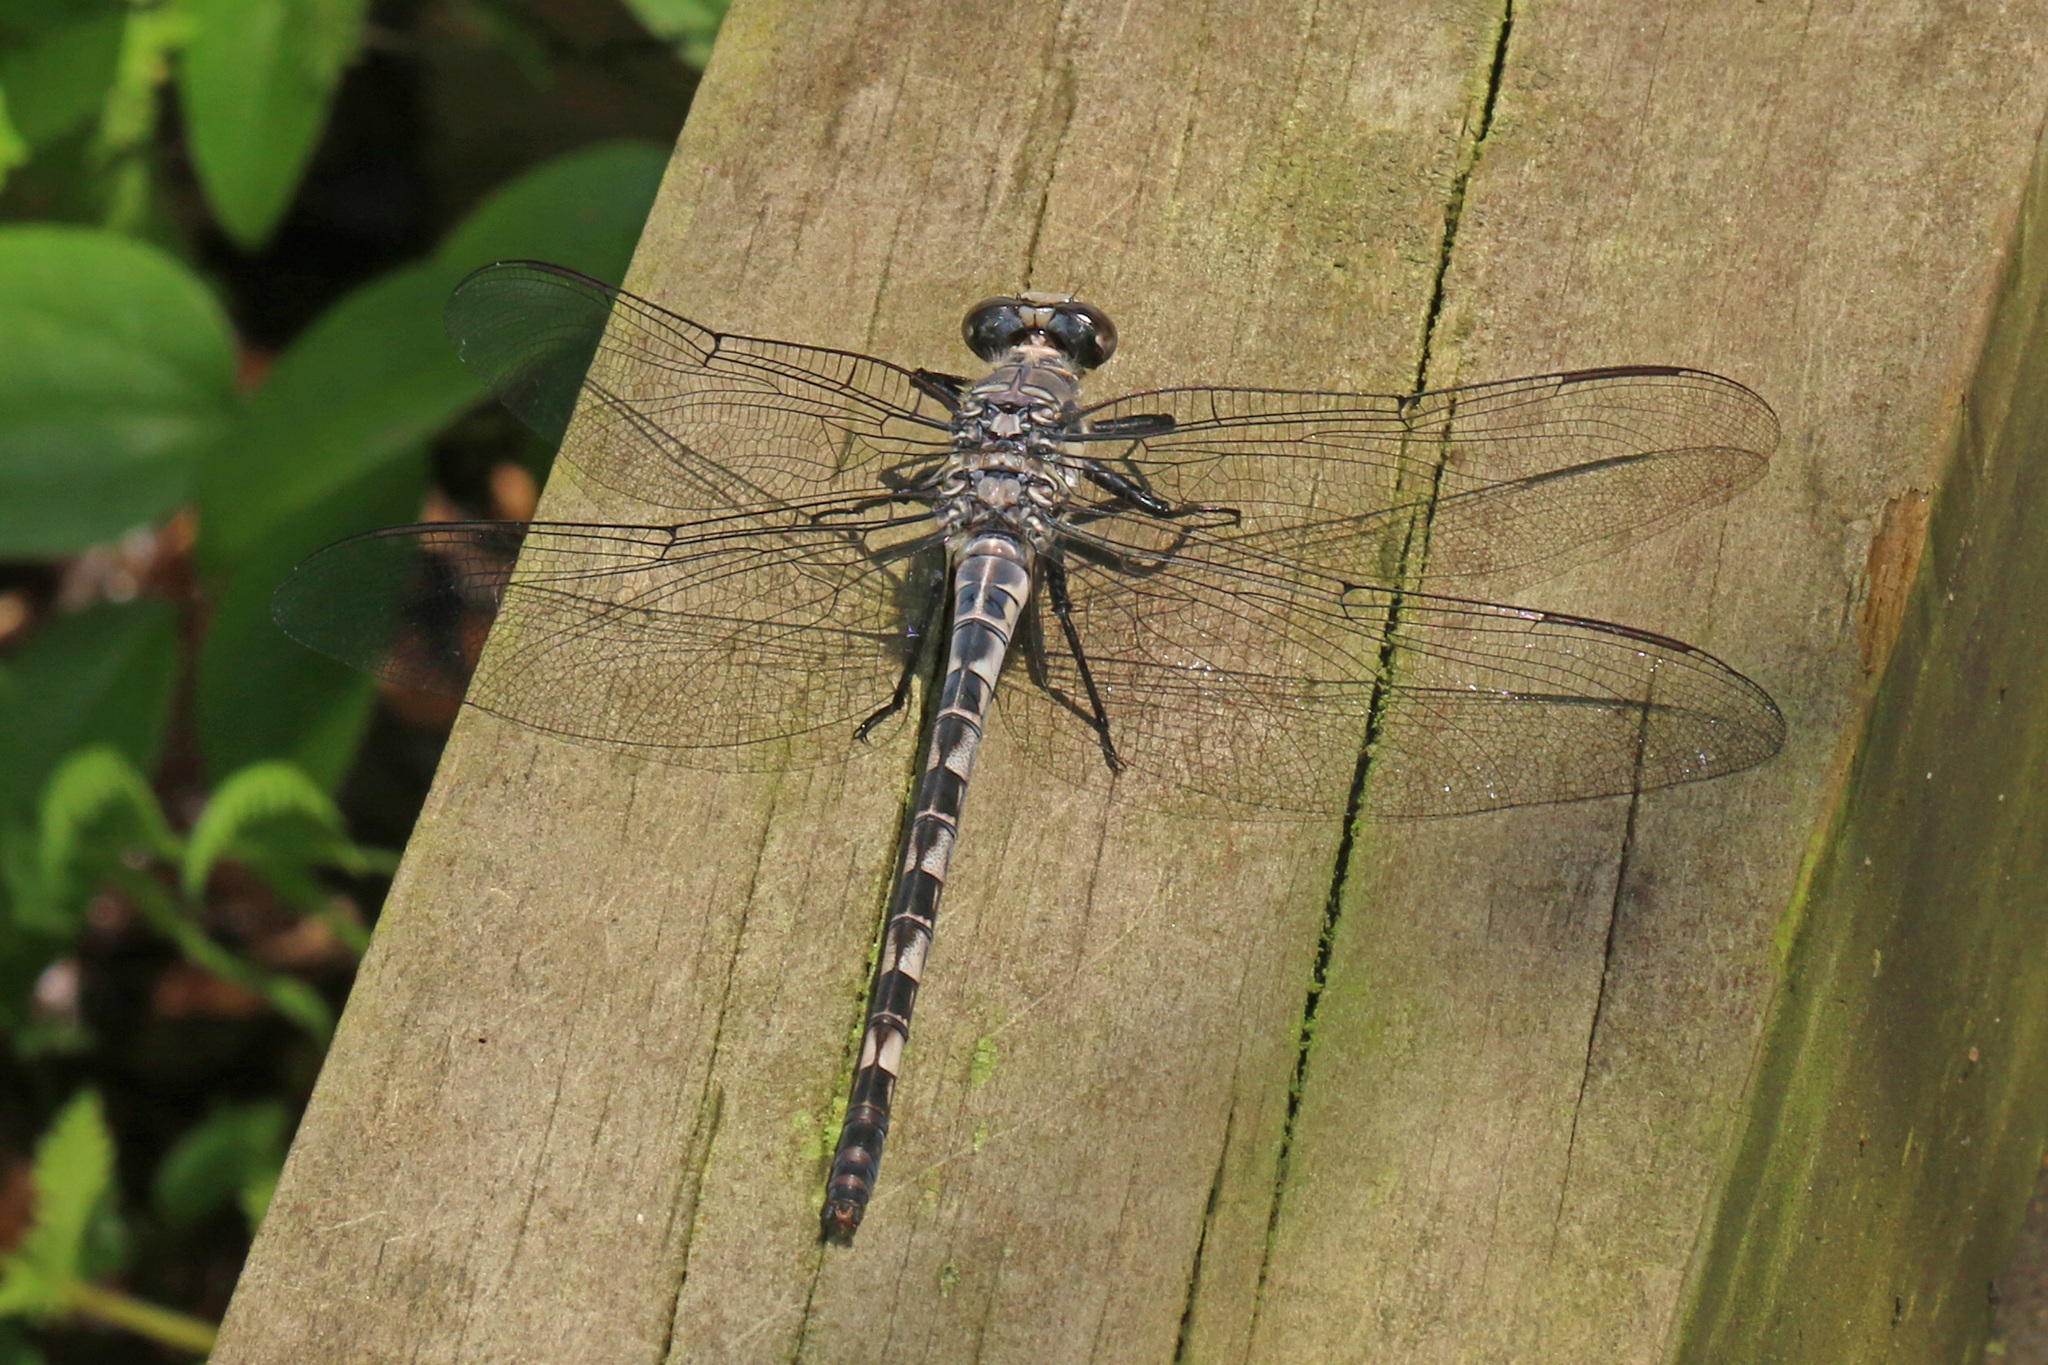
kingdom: Animalia
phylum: Arthropoda
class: Insecta
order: Odonata
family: Petaluridae
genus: Tachopteryx
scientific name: Tachopteryx thoreyi
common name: Gray petaltail
